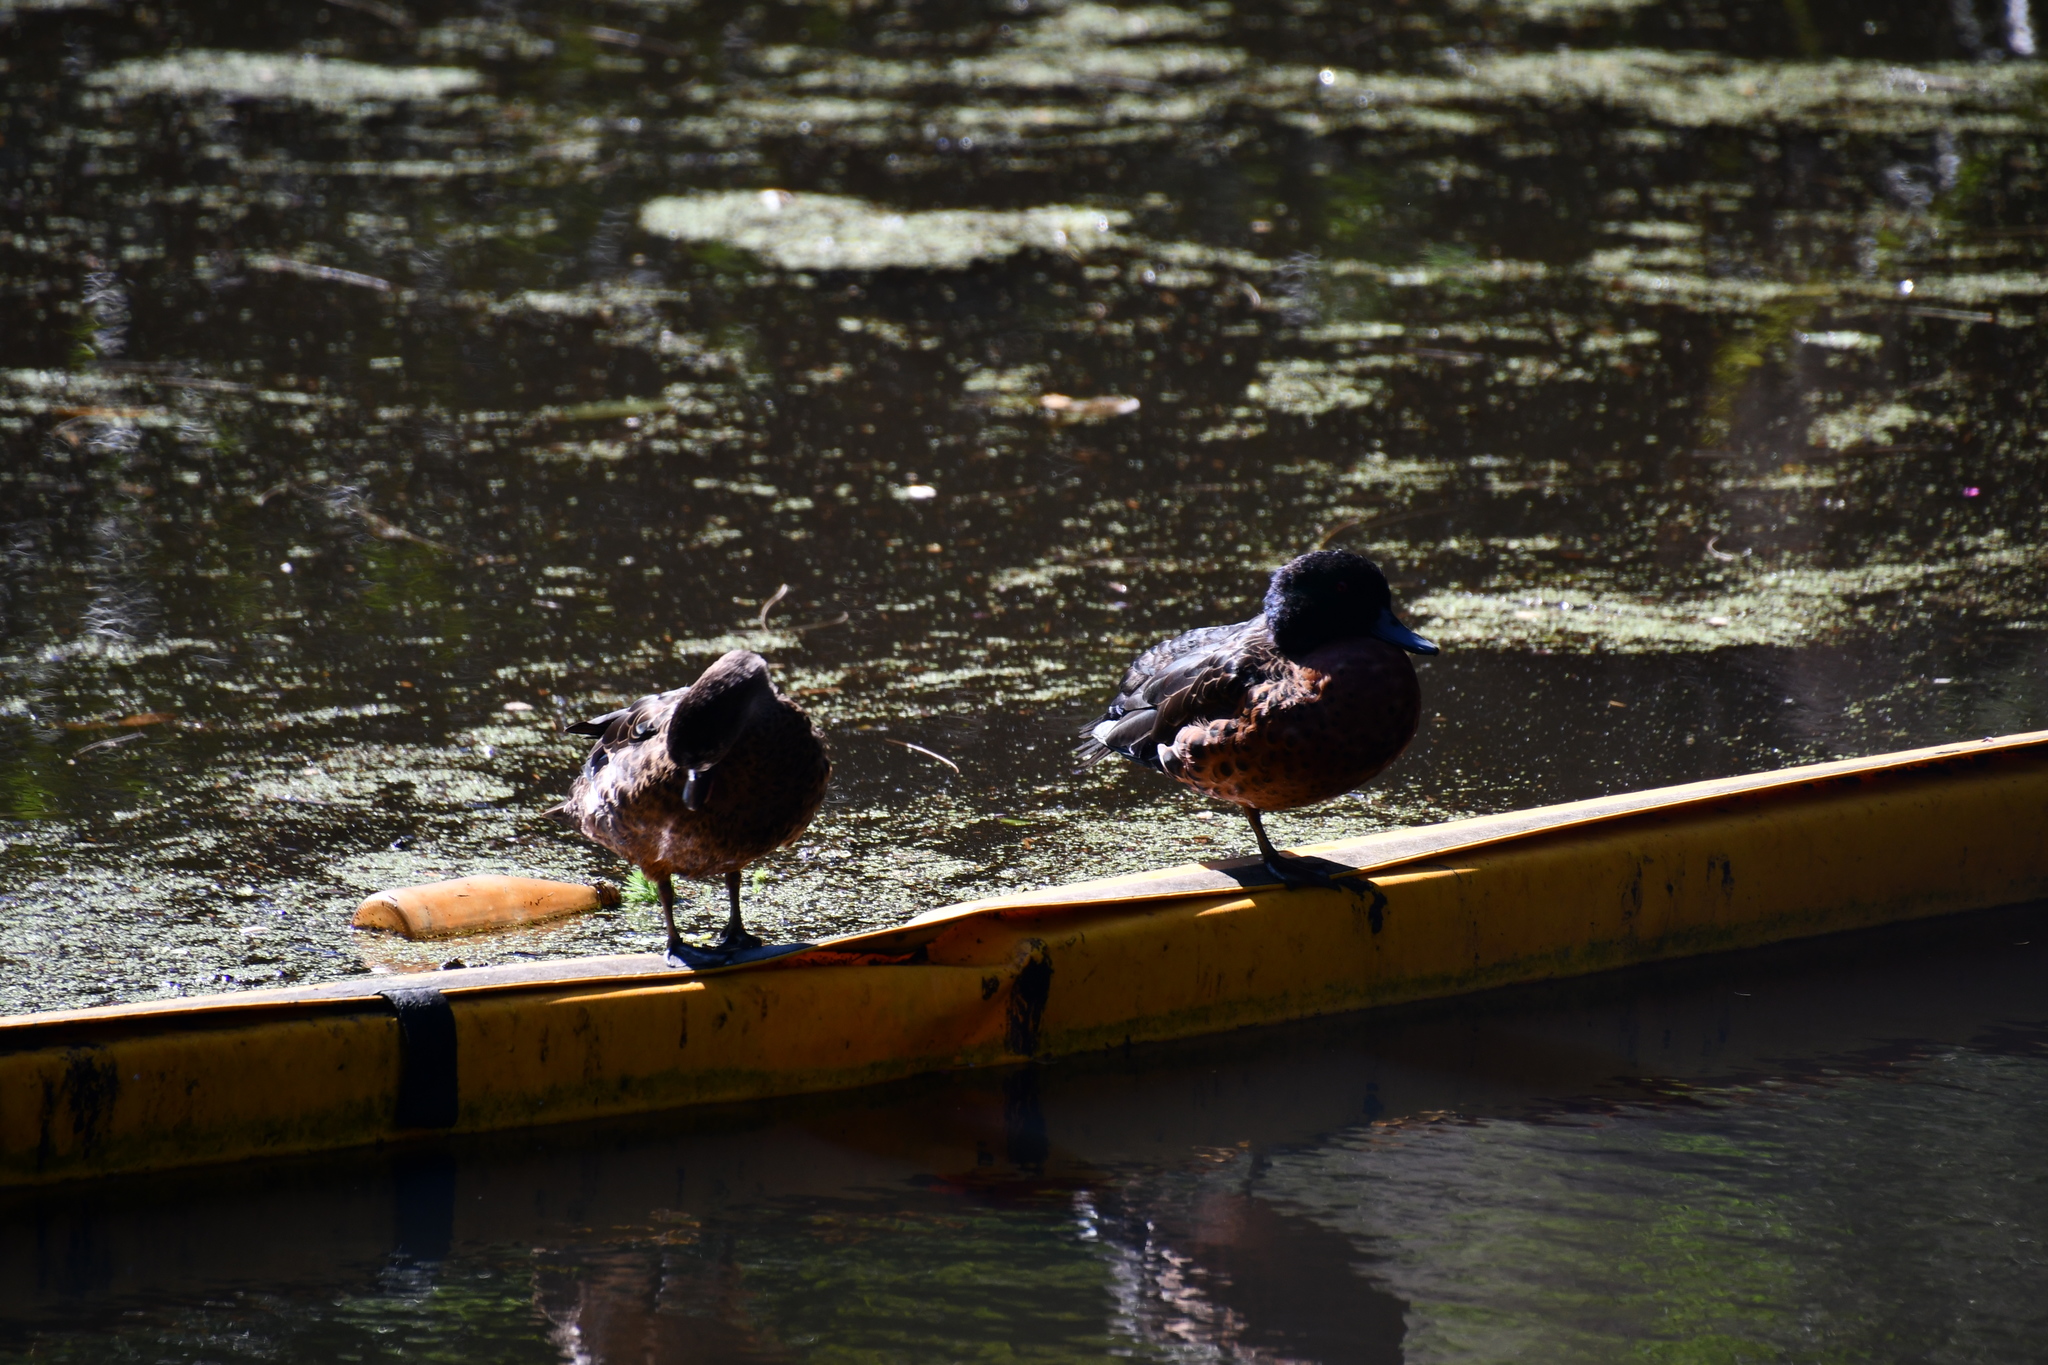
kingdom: Animalia
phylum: Chordata
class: Aves
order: Anseriformes
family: Anatidae
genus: Anas
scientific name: Anas castanea
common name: Chestnut teal
